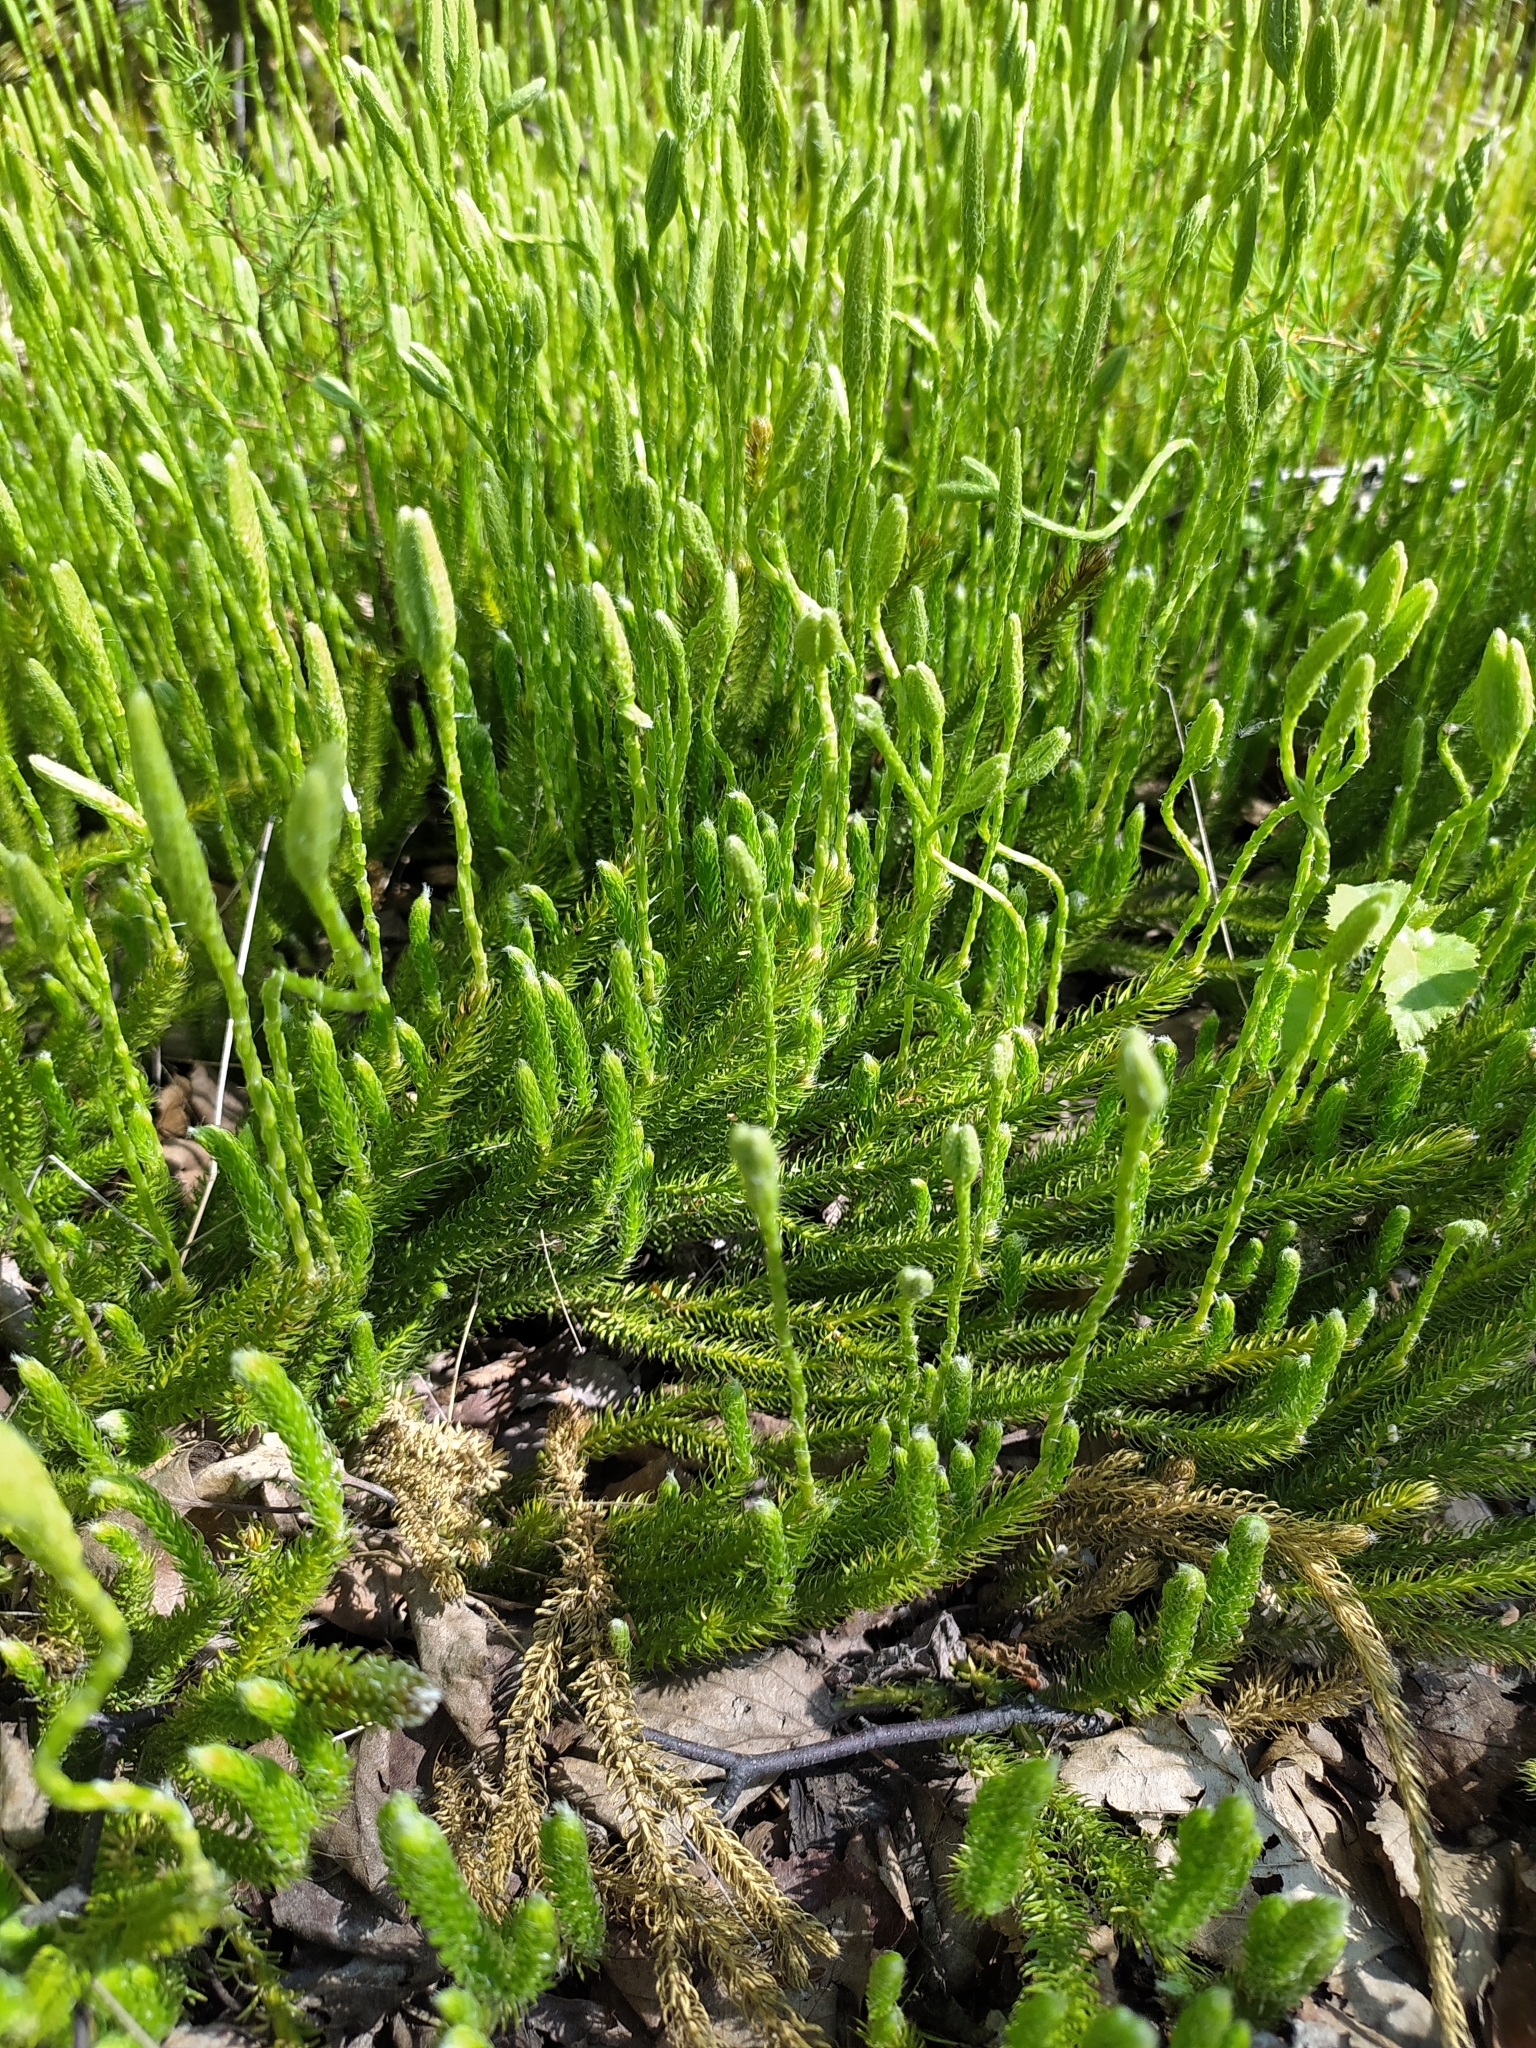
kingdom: Plantae
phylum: Tracheophyta
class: Lycopodiopsida
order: Lycopodiales
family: Lycopodiaceae
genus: Lycopodium
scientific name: Lycopodium clavatum
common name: Stag's-horn clubmoss
